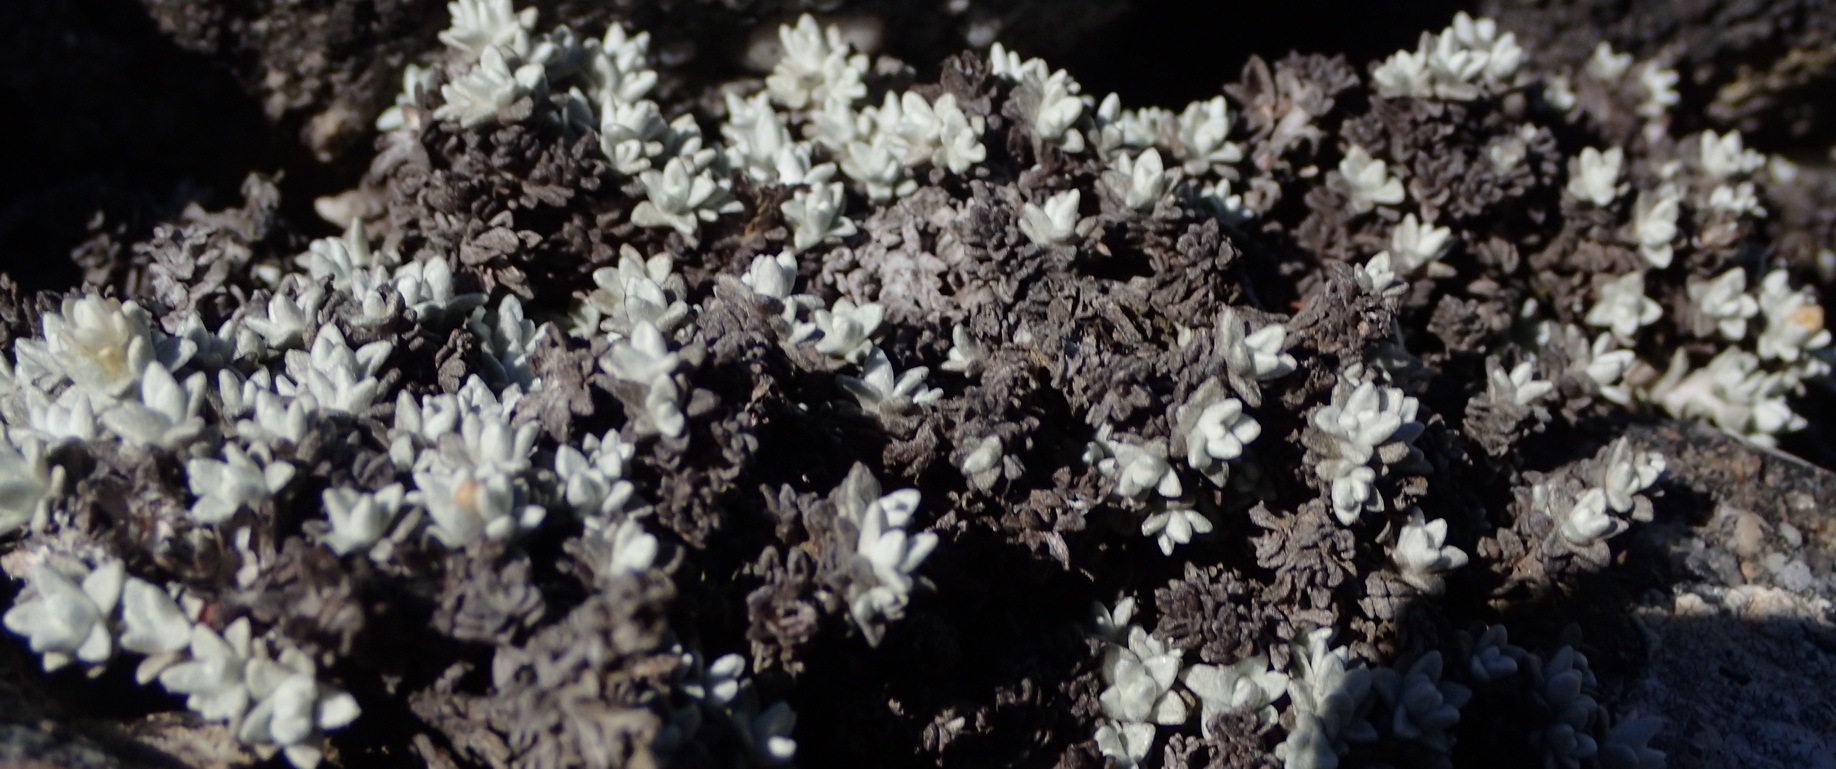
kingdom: Plantae
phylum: Tracheophyta
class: Magnoliopsida
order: Asterales
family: Asteraceae
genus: Helichrysum
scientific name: Helichrysum saxicola
